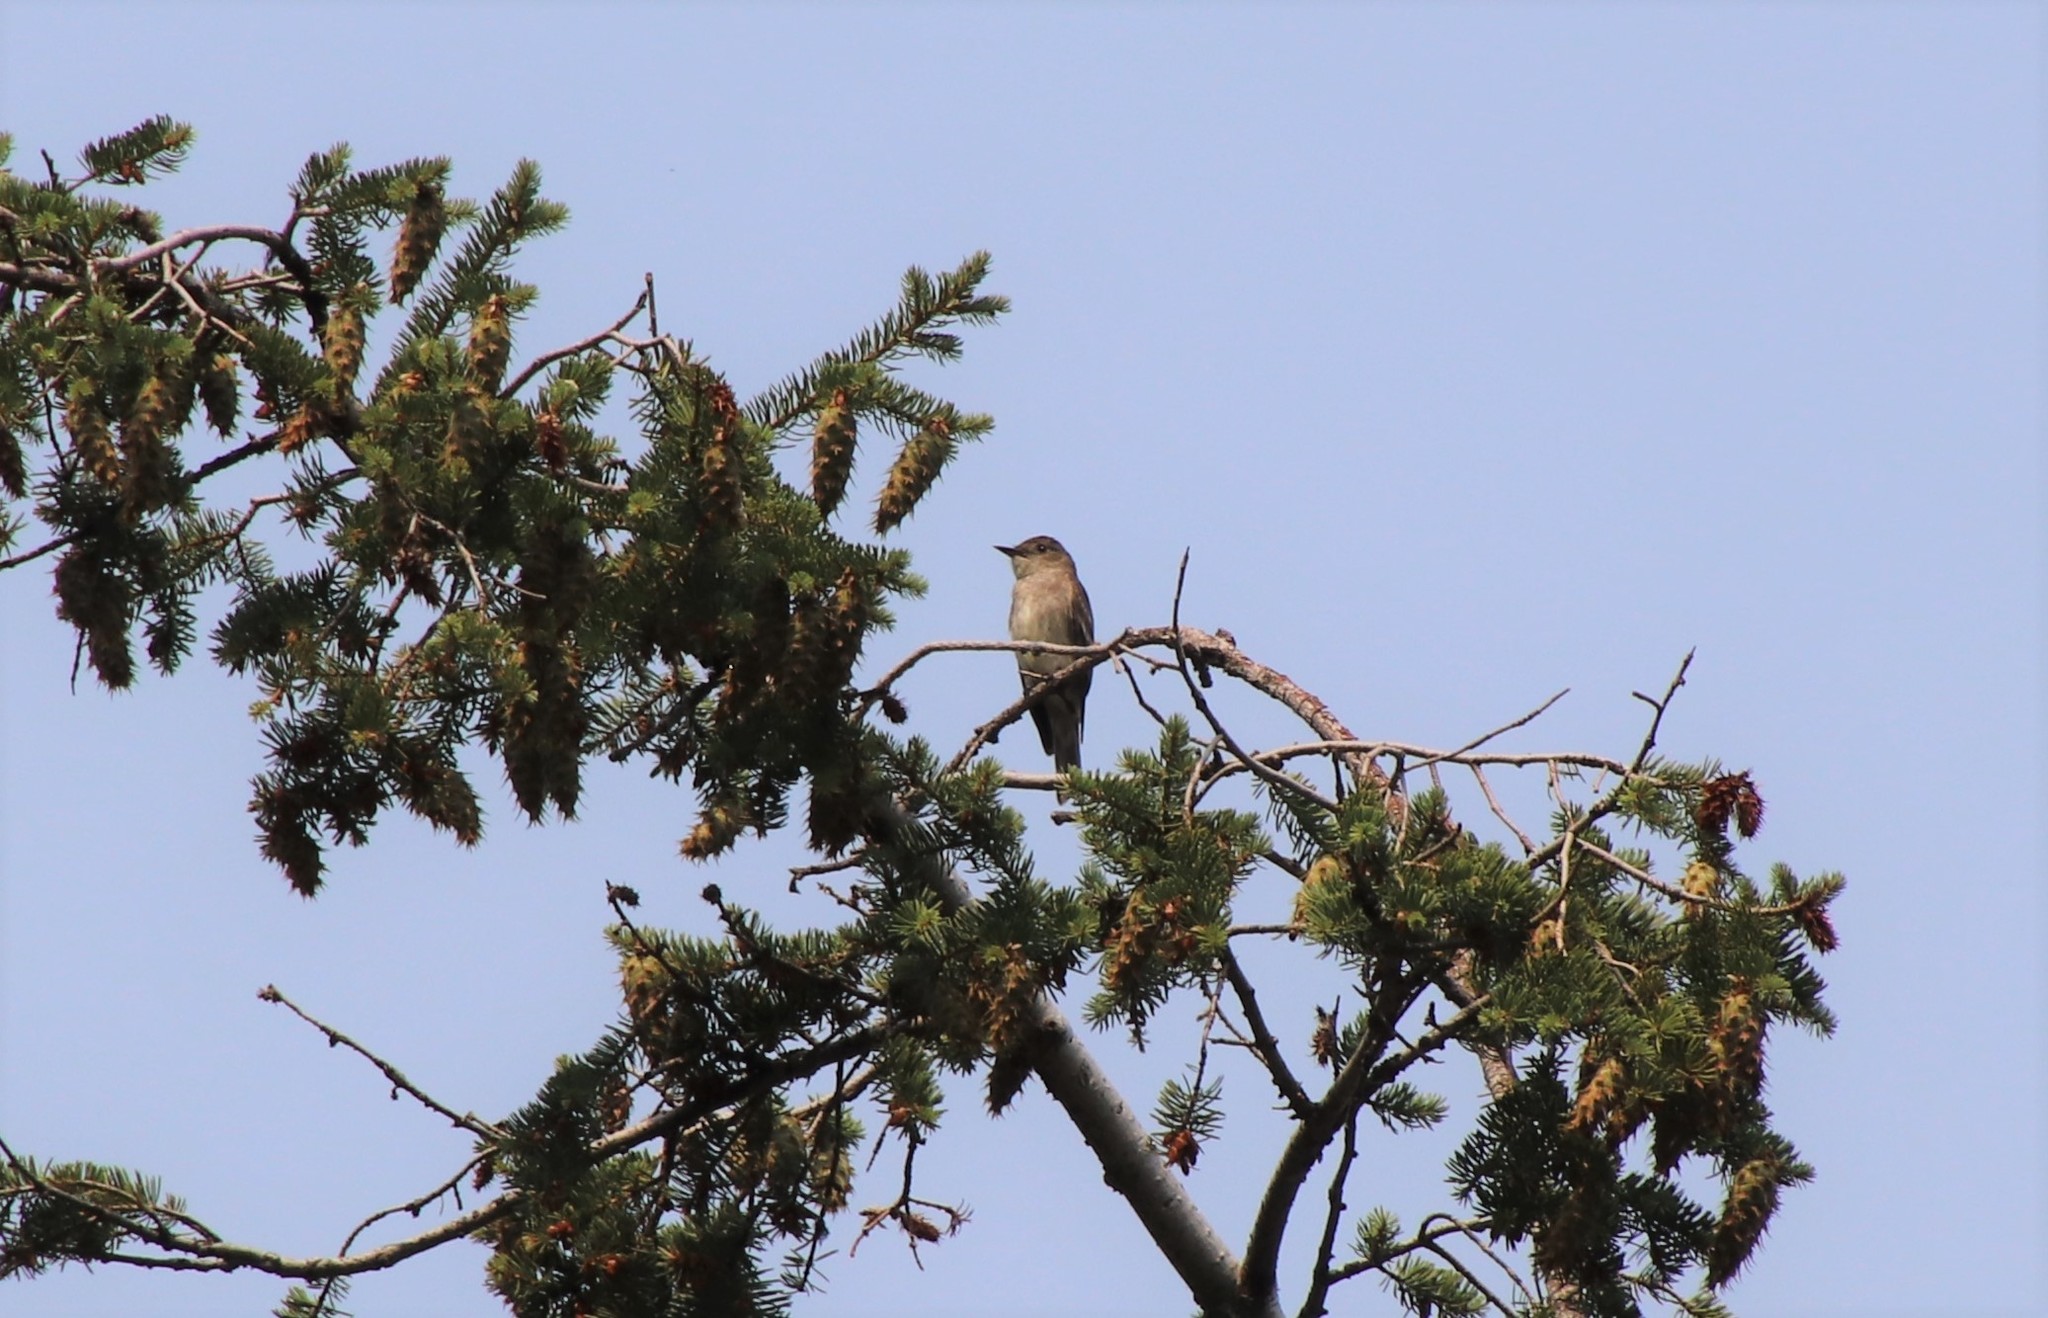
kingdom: Animalia
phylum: Chordata
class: Aves
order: Passeriformes
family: Tyrannidae
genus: Contopus
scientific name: Contopus sordidulus
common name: Western wood-pewee
